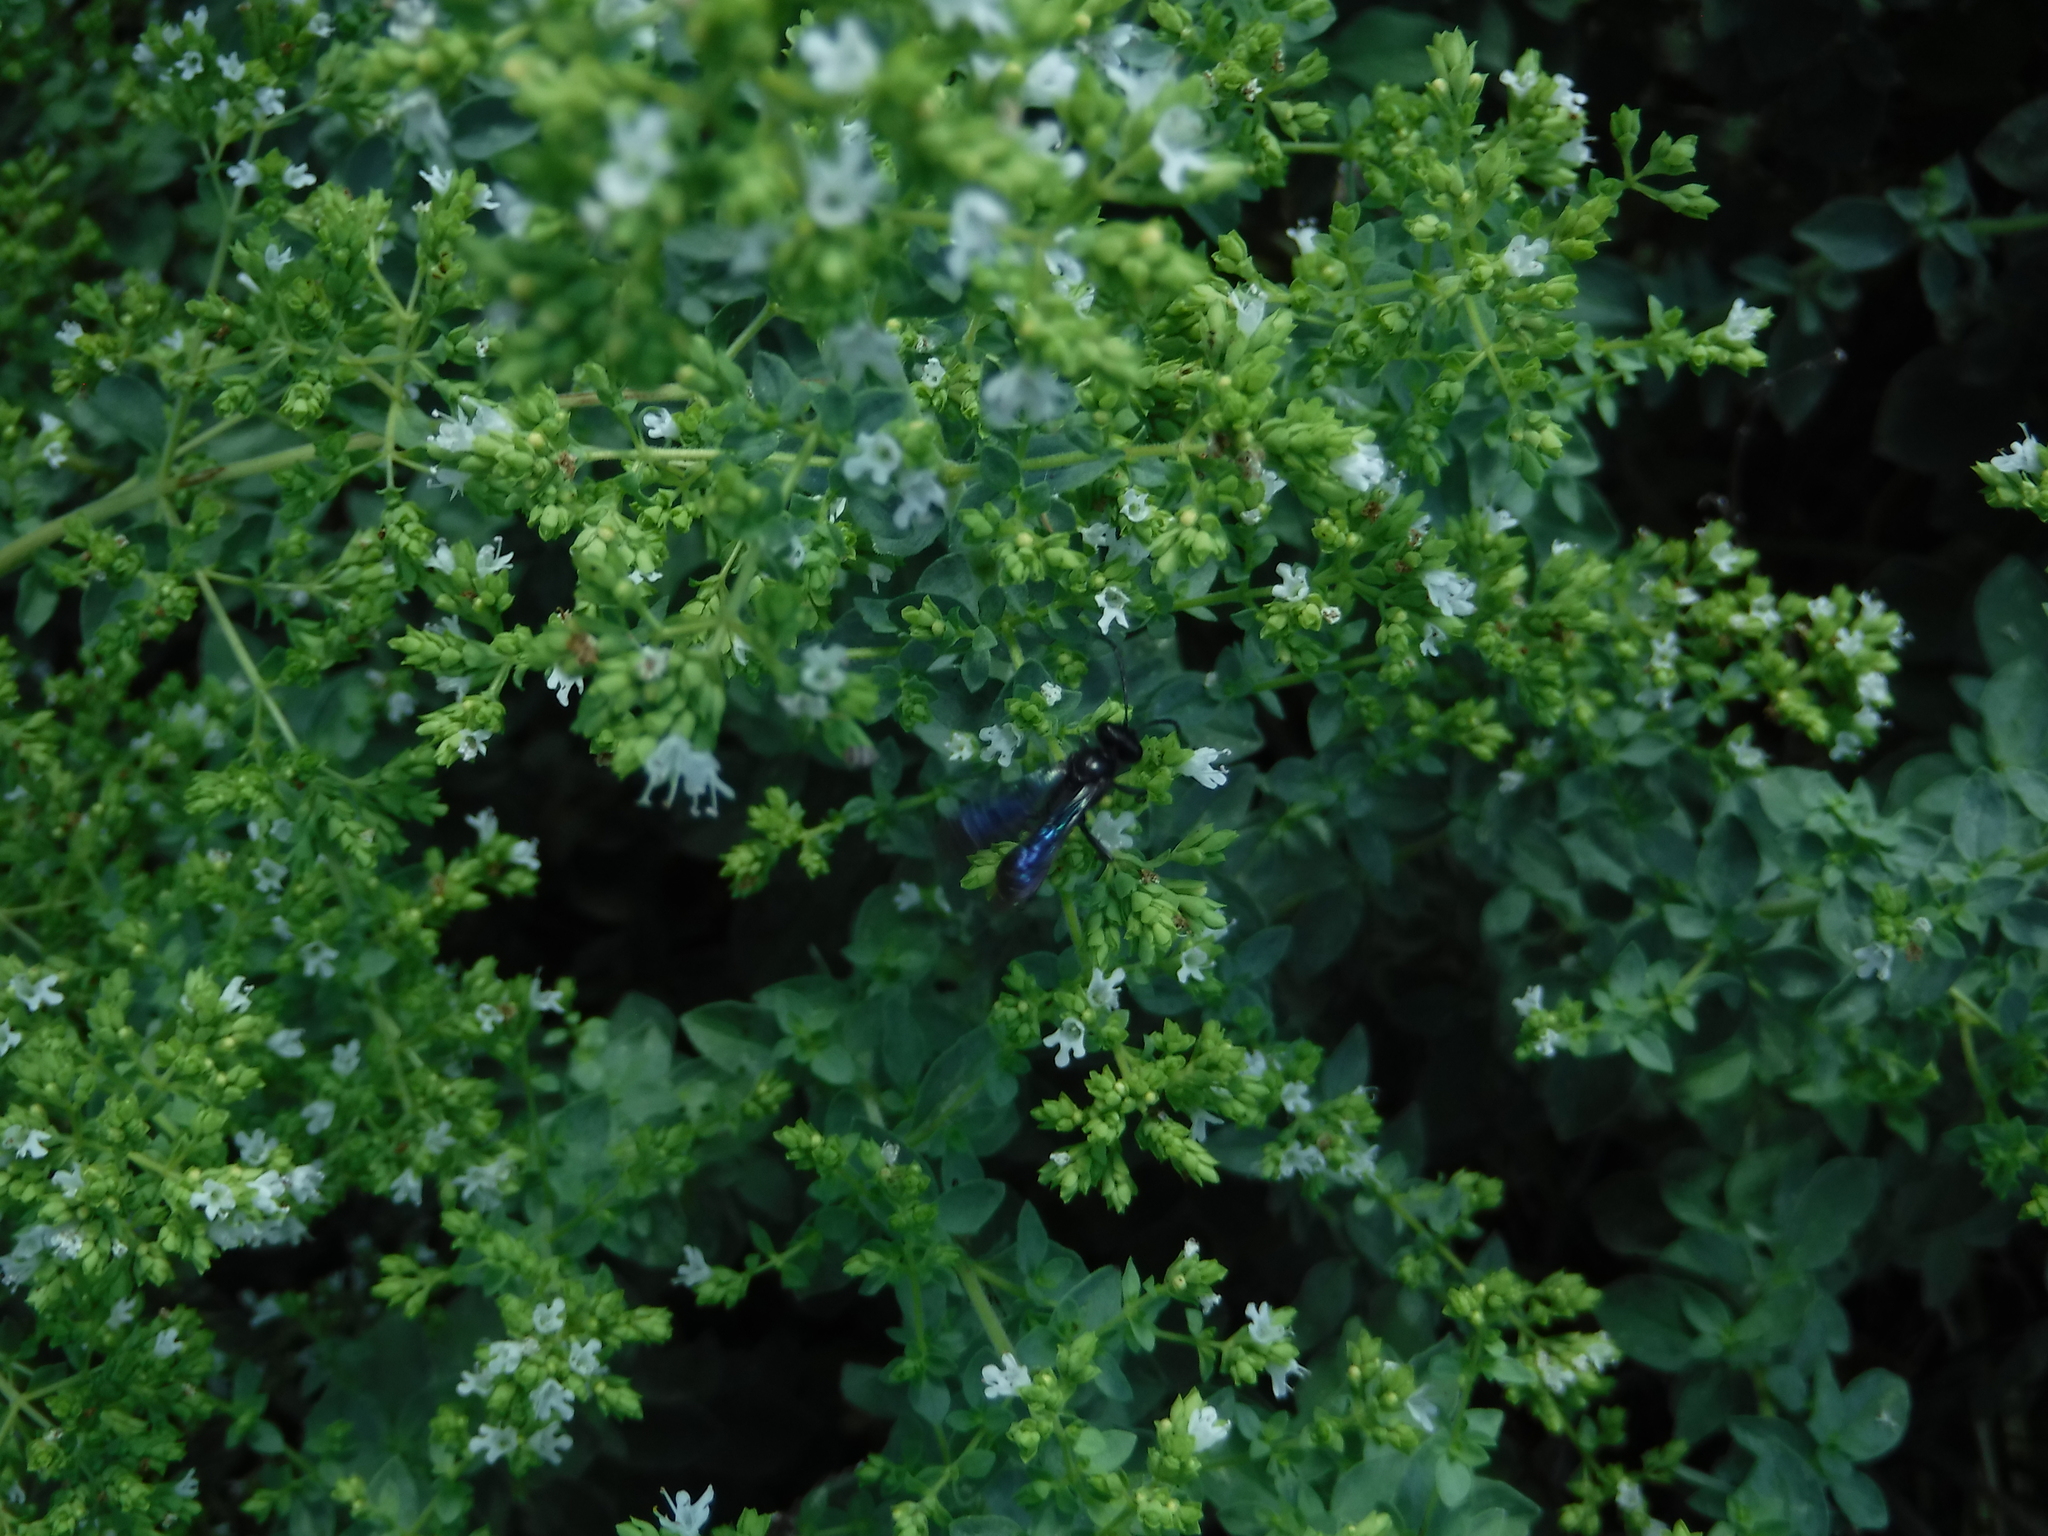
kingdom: Animalia
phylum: Arthropoda
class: Insecta
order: Hymenoptera
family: Sphecidae
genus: Sphex
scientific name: Sphex lucae
